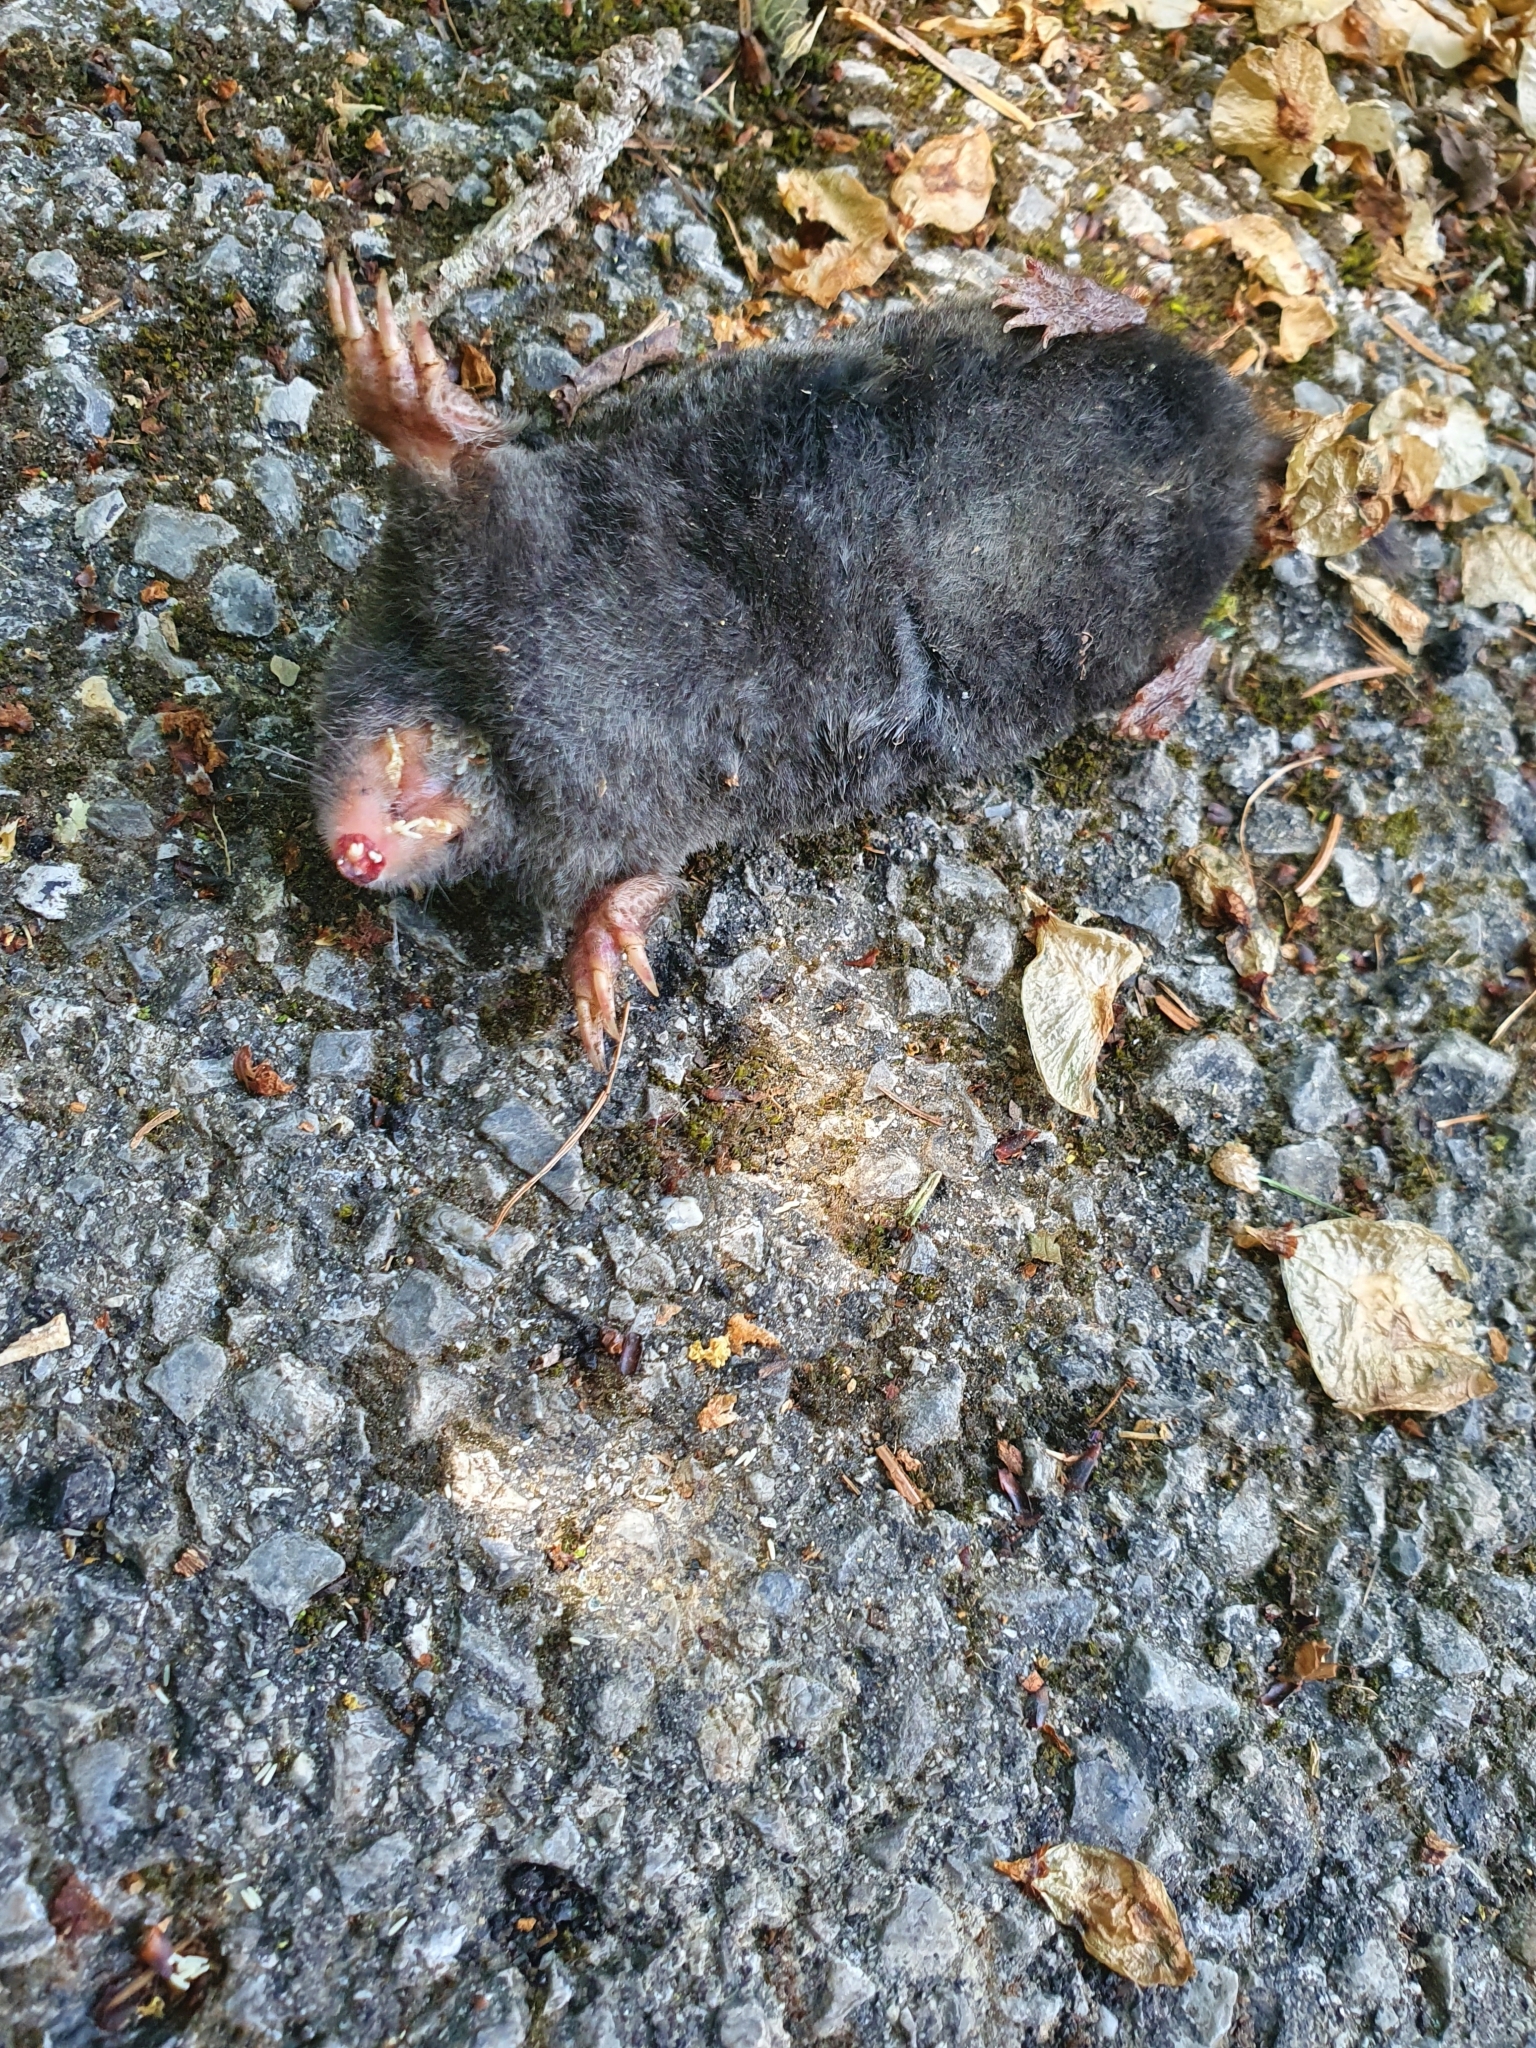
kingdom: Animalia
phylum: Chordata
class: Mammalia
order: Soricomorpha
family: Talpidae
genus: Talpa
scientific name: Talpa europaea
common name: European mole
